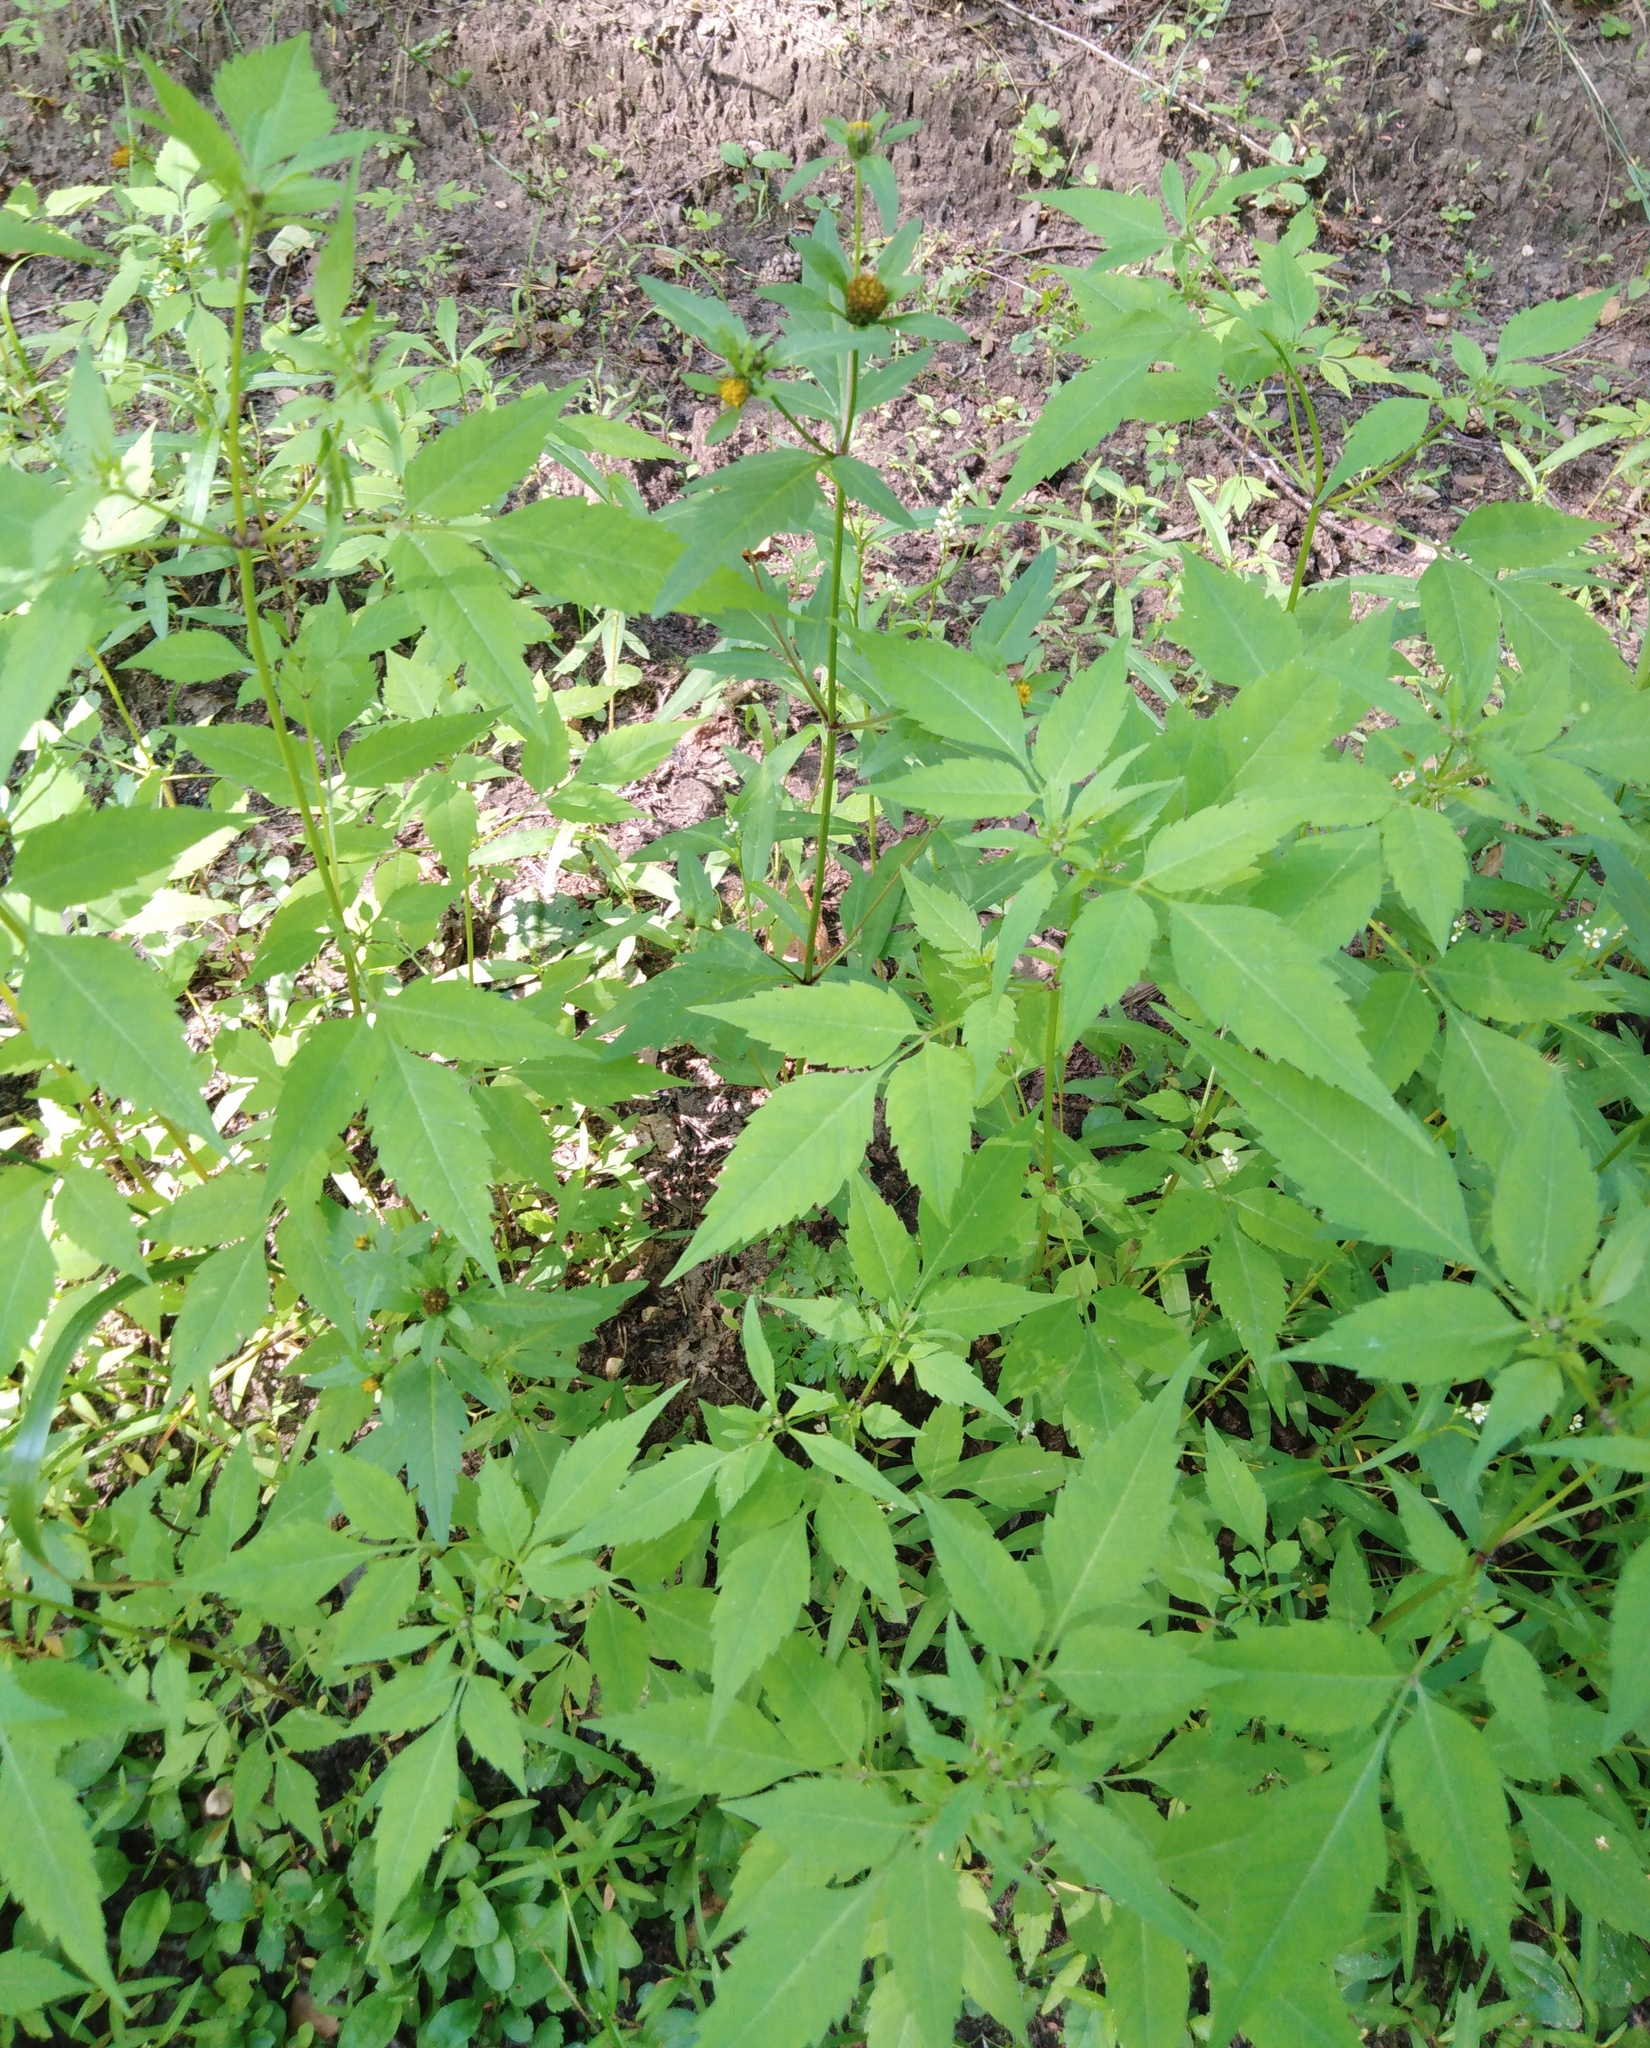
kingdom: Plantae
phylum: Tracheophyta
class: Magnoliopsida
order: Asterales
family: Asteraceae
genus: Bidens
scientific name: Bidens frondosa
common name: Beggarticks
